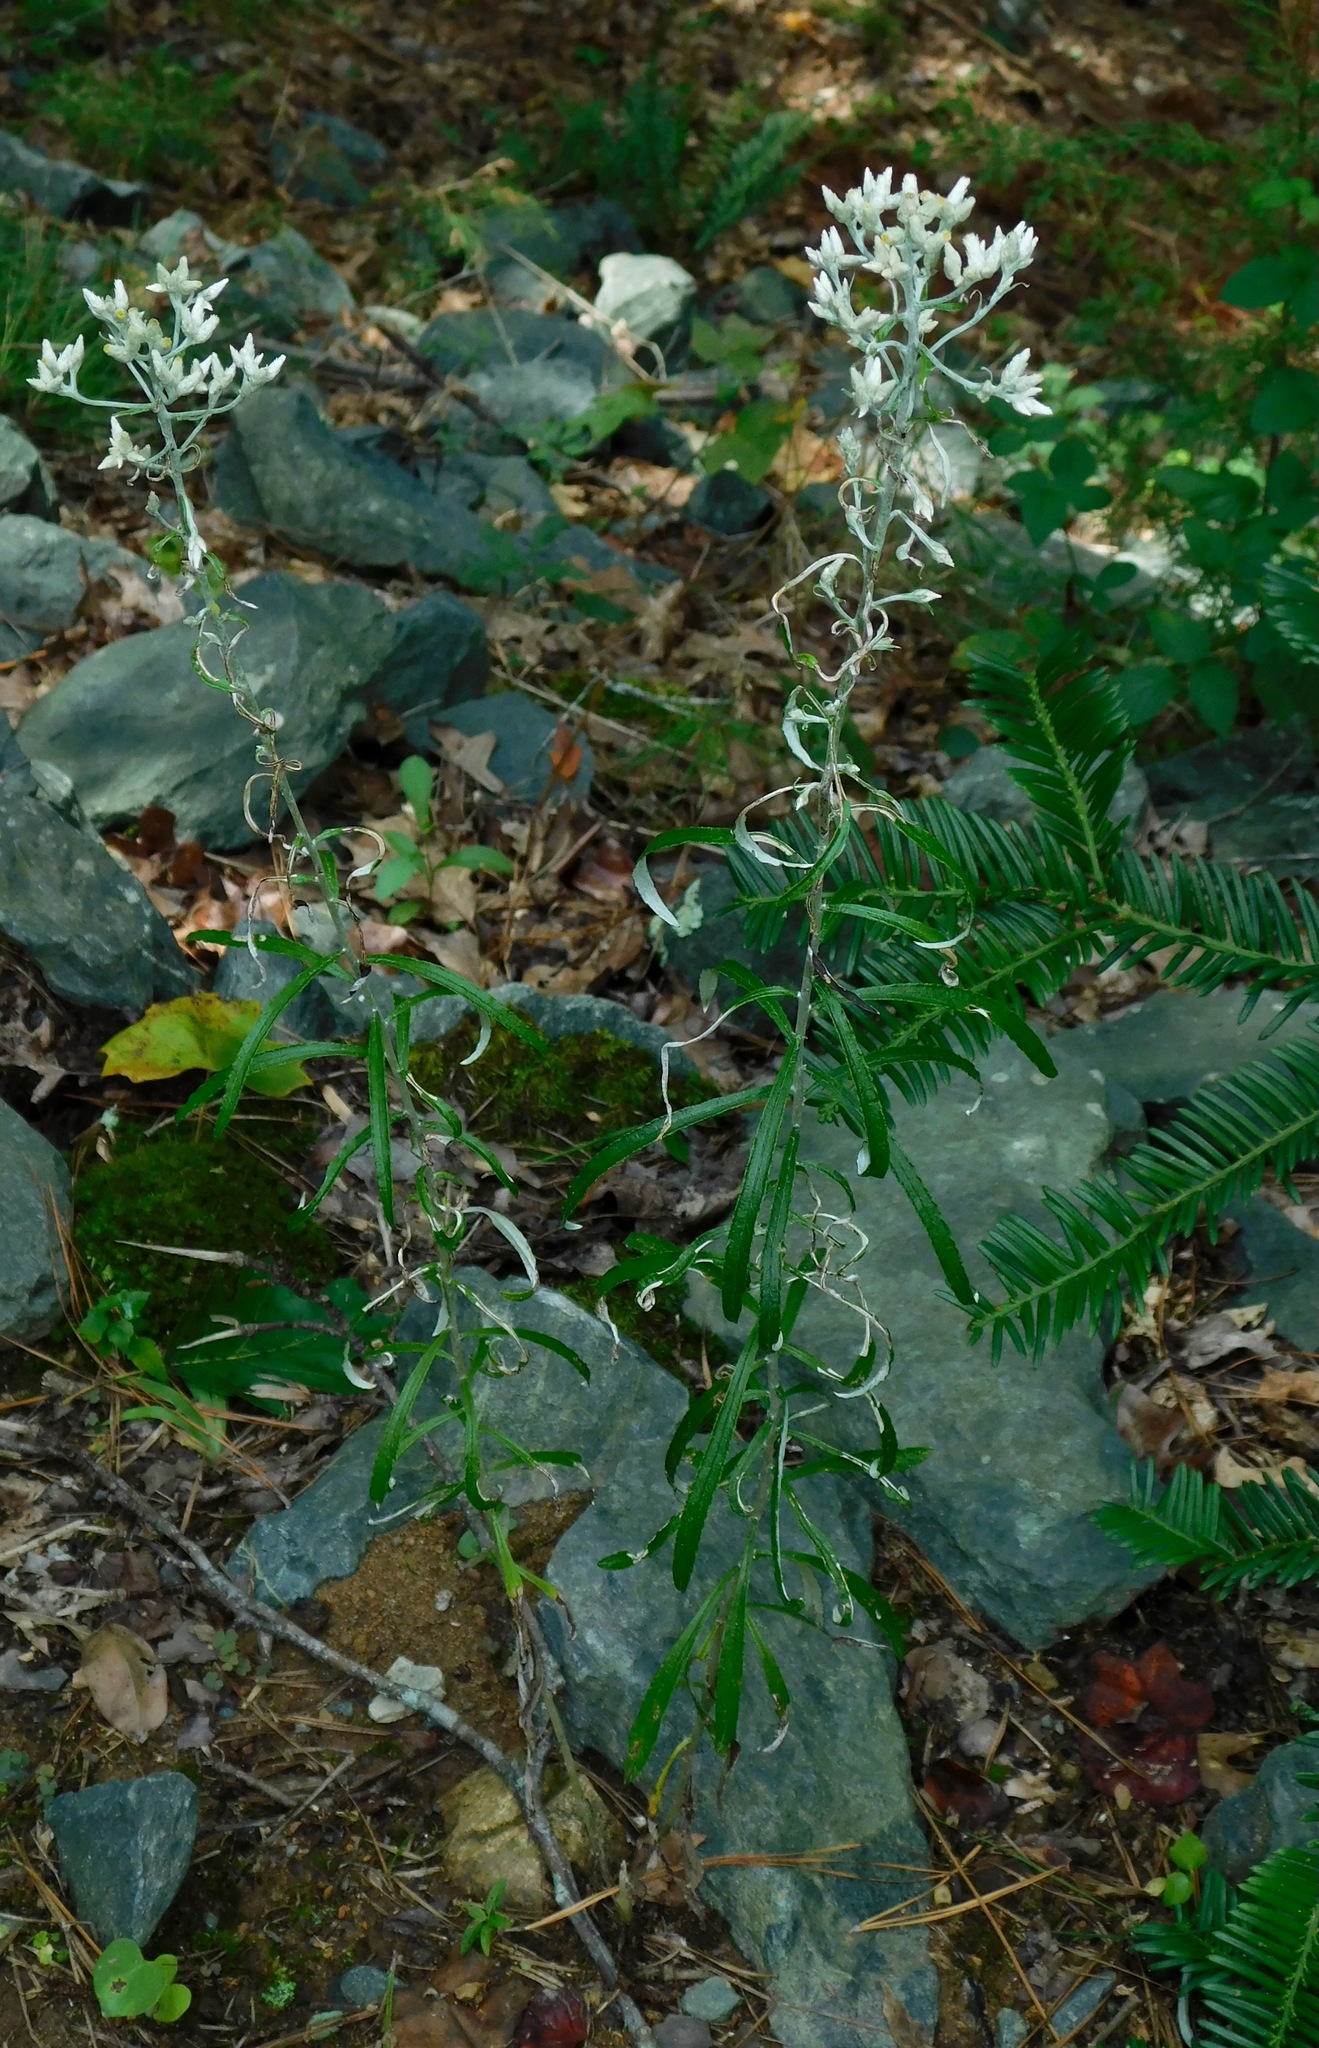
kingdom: Plantae
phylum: Tracheophyta
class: Magnoliopsida
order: Asterales
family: Asteraceae
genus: Pseudognaphalium
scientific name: Pseudognaphalium obtusifolium
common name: Eastern rabbit-tobacco
